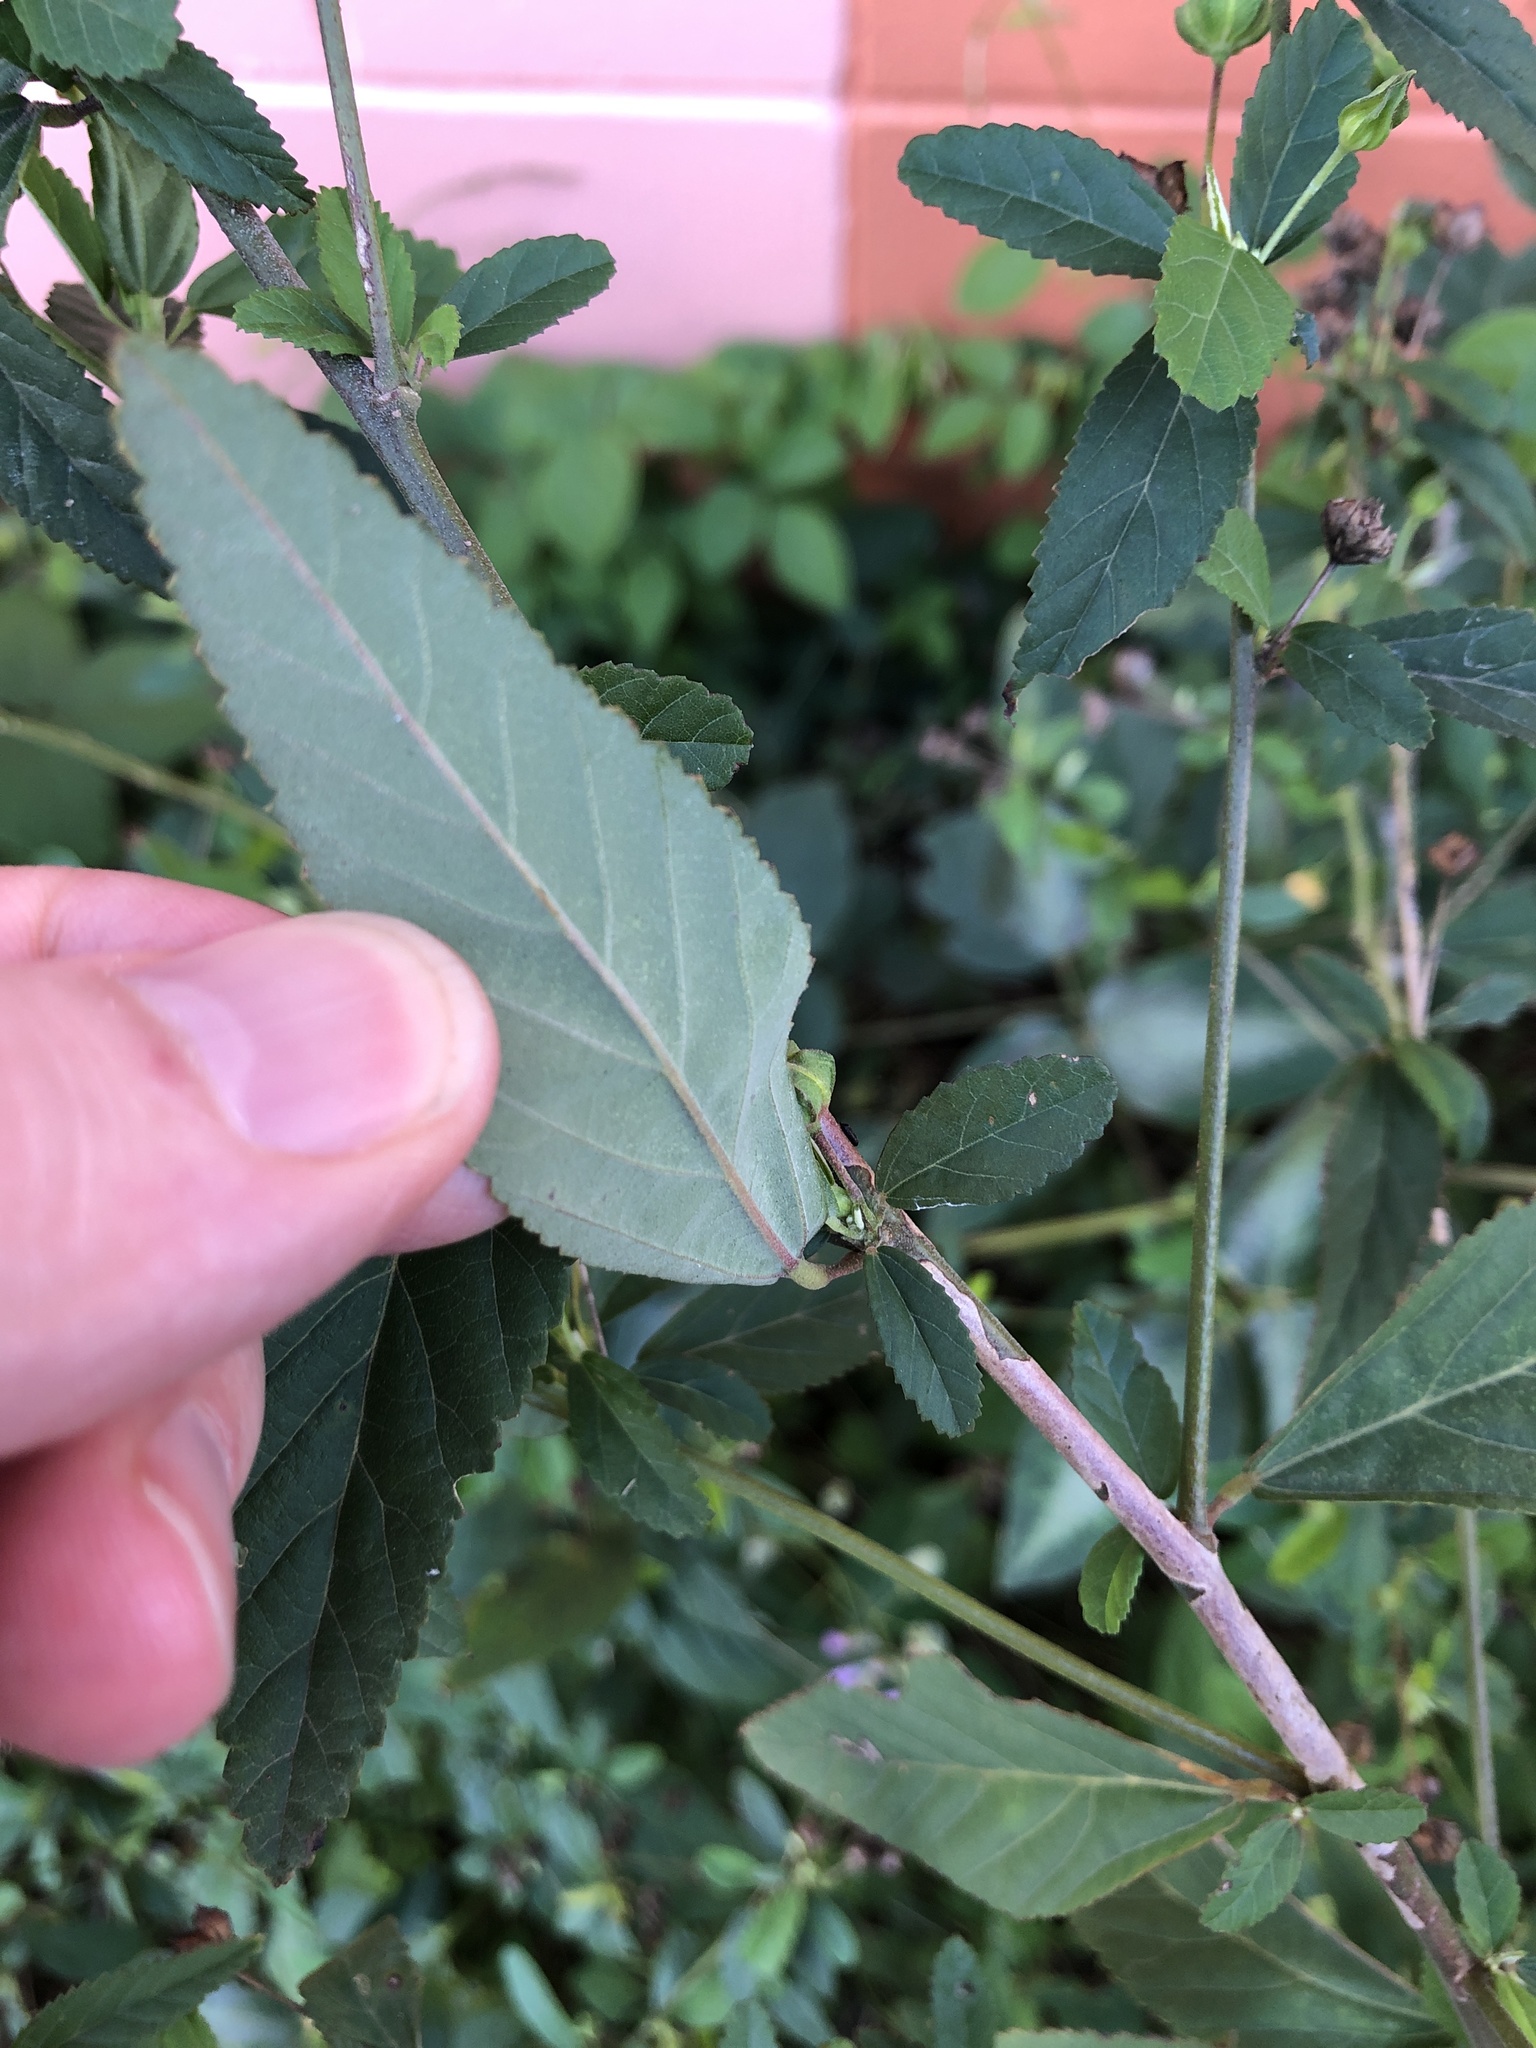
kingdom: Plantae
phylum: Tracheophyta
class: Magnoliopsida
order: Malvales
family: Malvaceae
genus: Sida
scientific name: Sida rhombifolia
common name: Queensland-hemp
